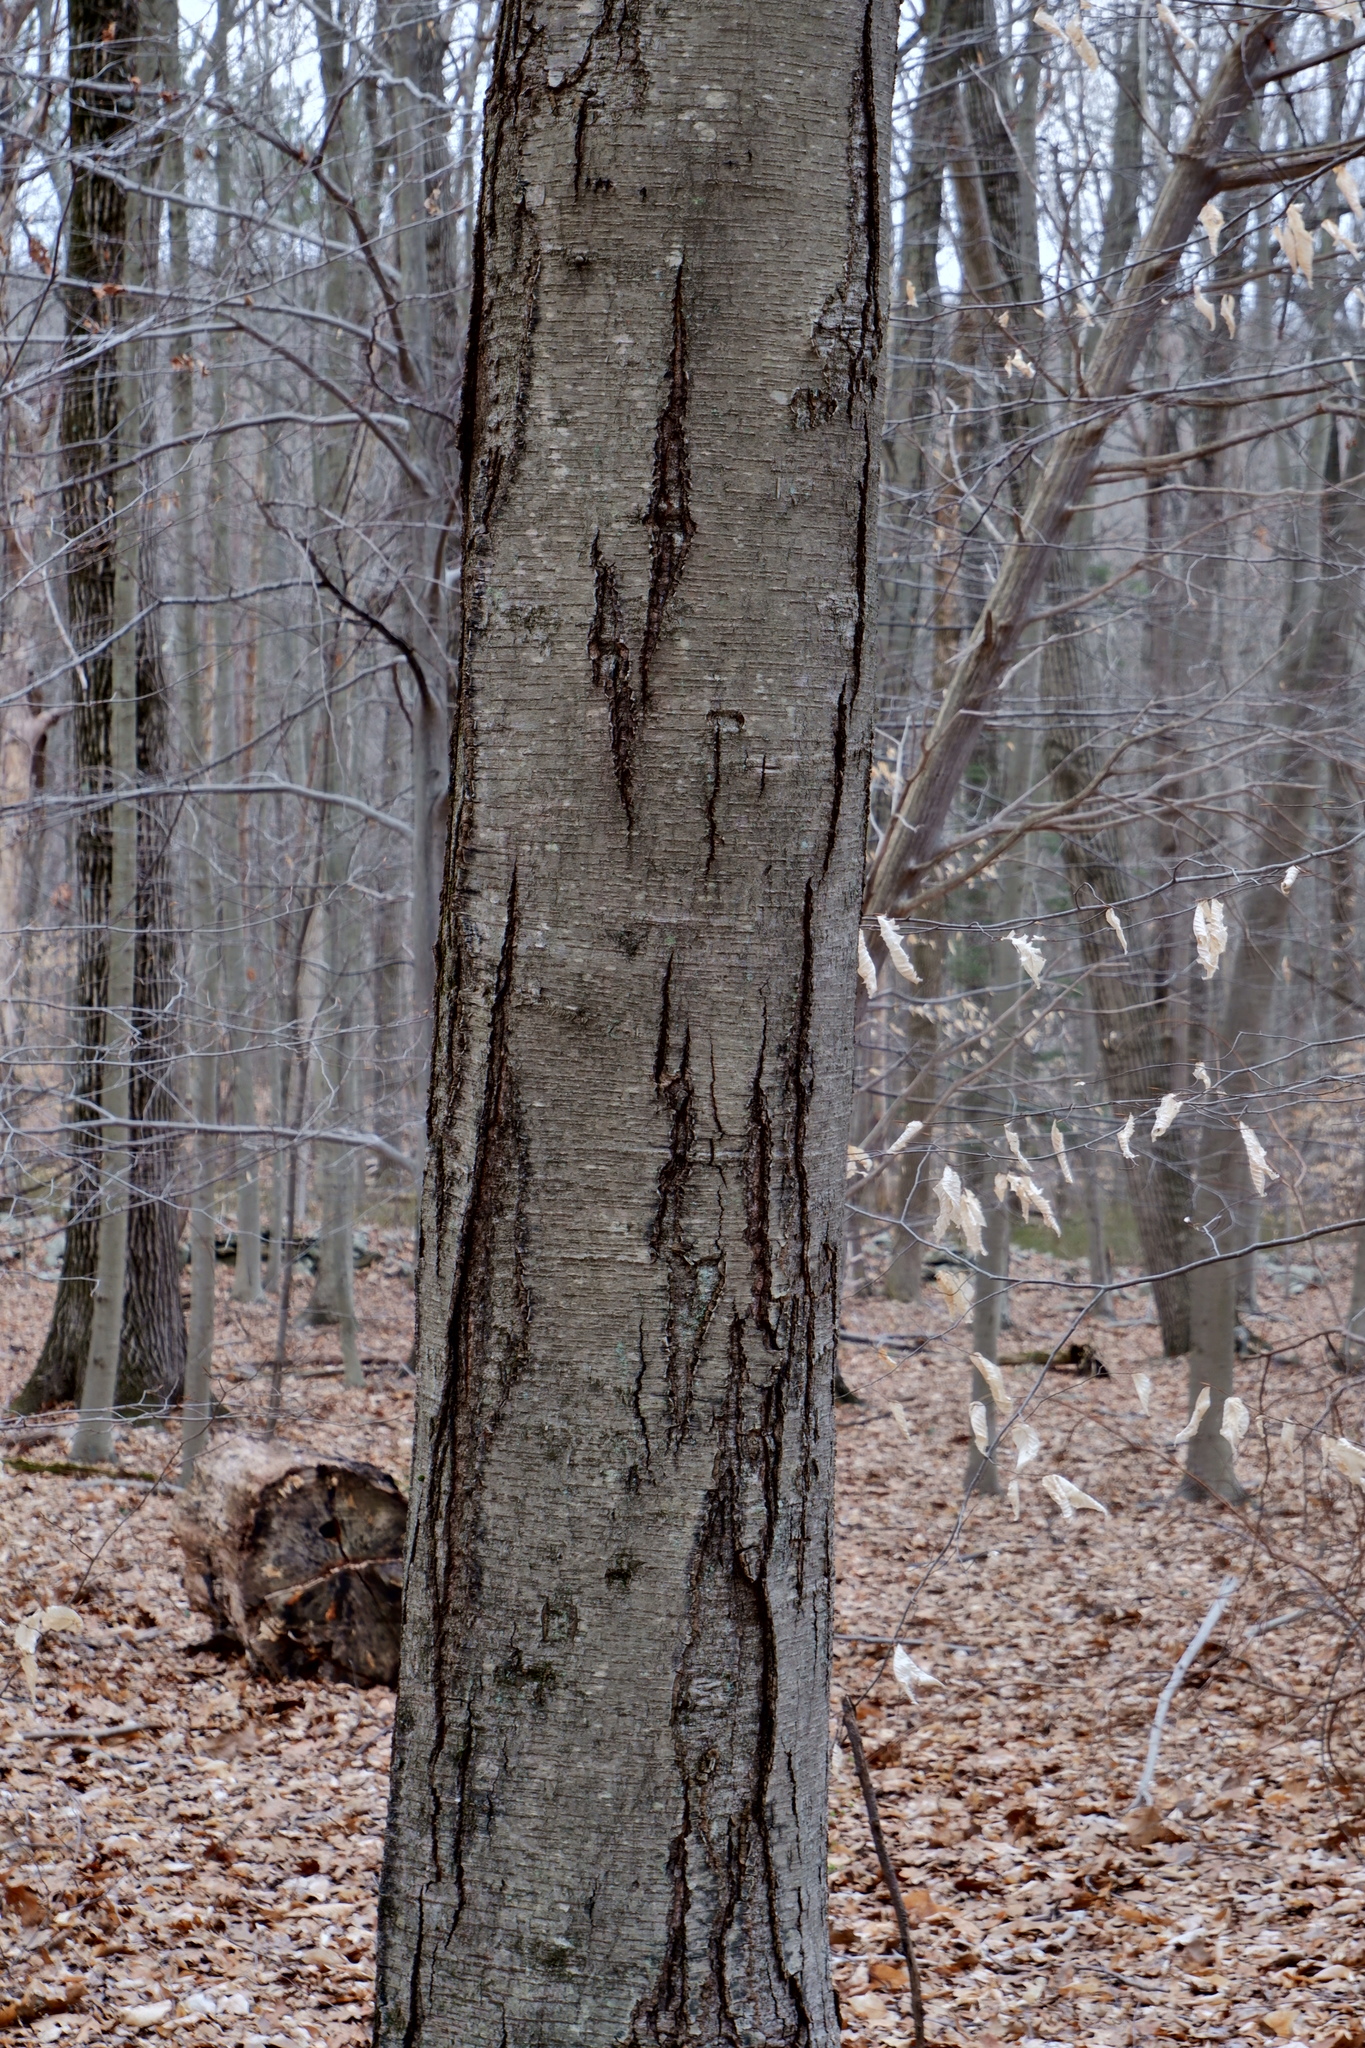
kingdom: Plantae
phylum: Tracheophyta
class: Magnoliopsida
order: Fagales
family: Betulaceae
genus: Betula
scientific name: Betula lenta
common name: Black birch
